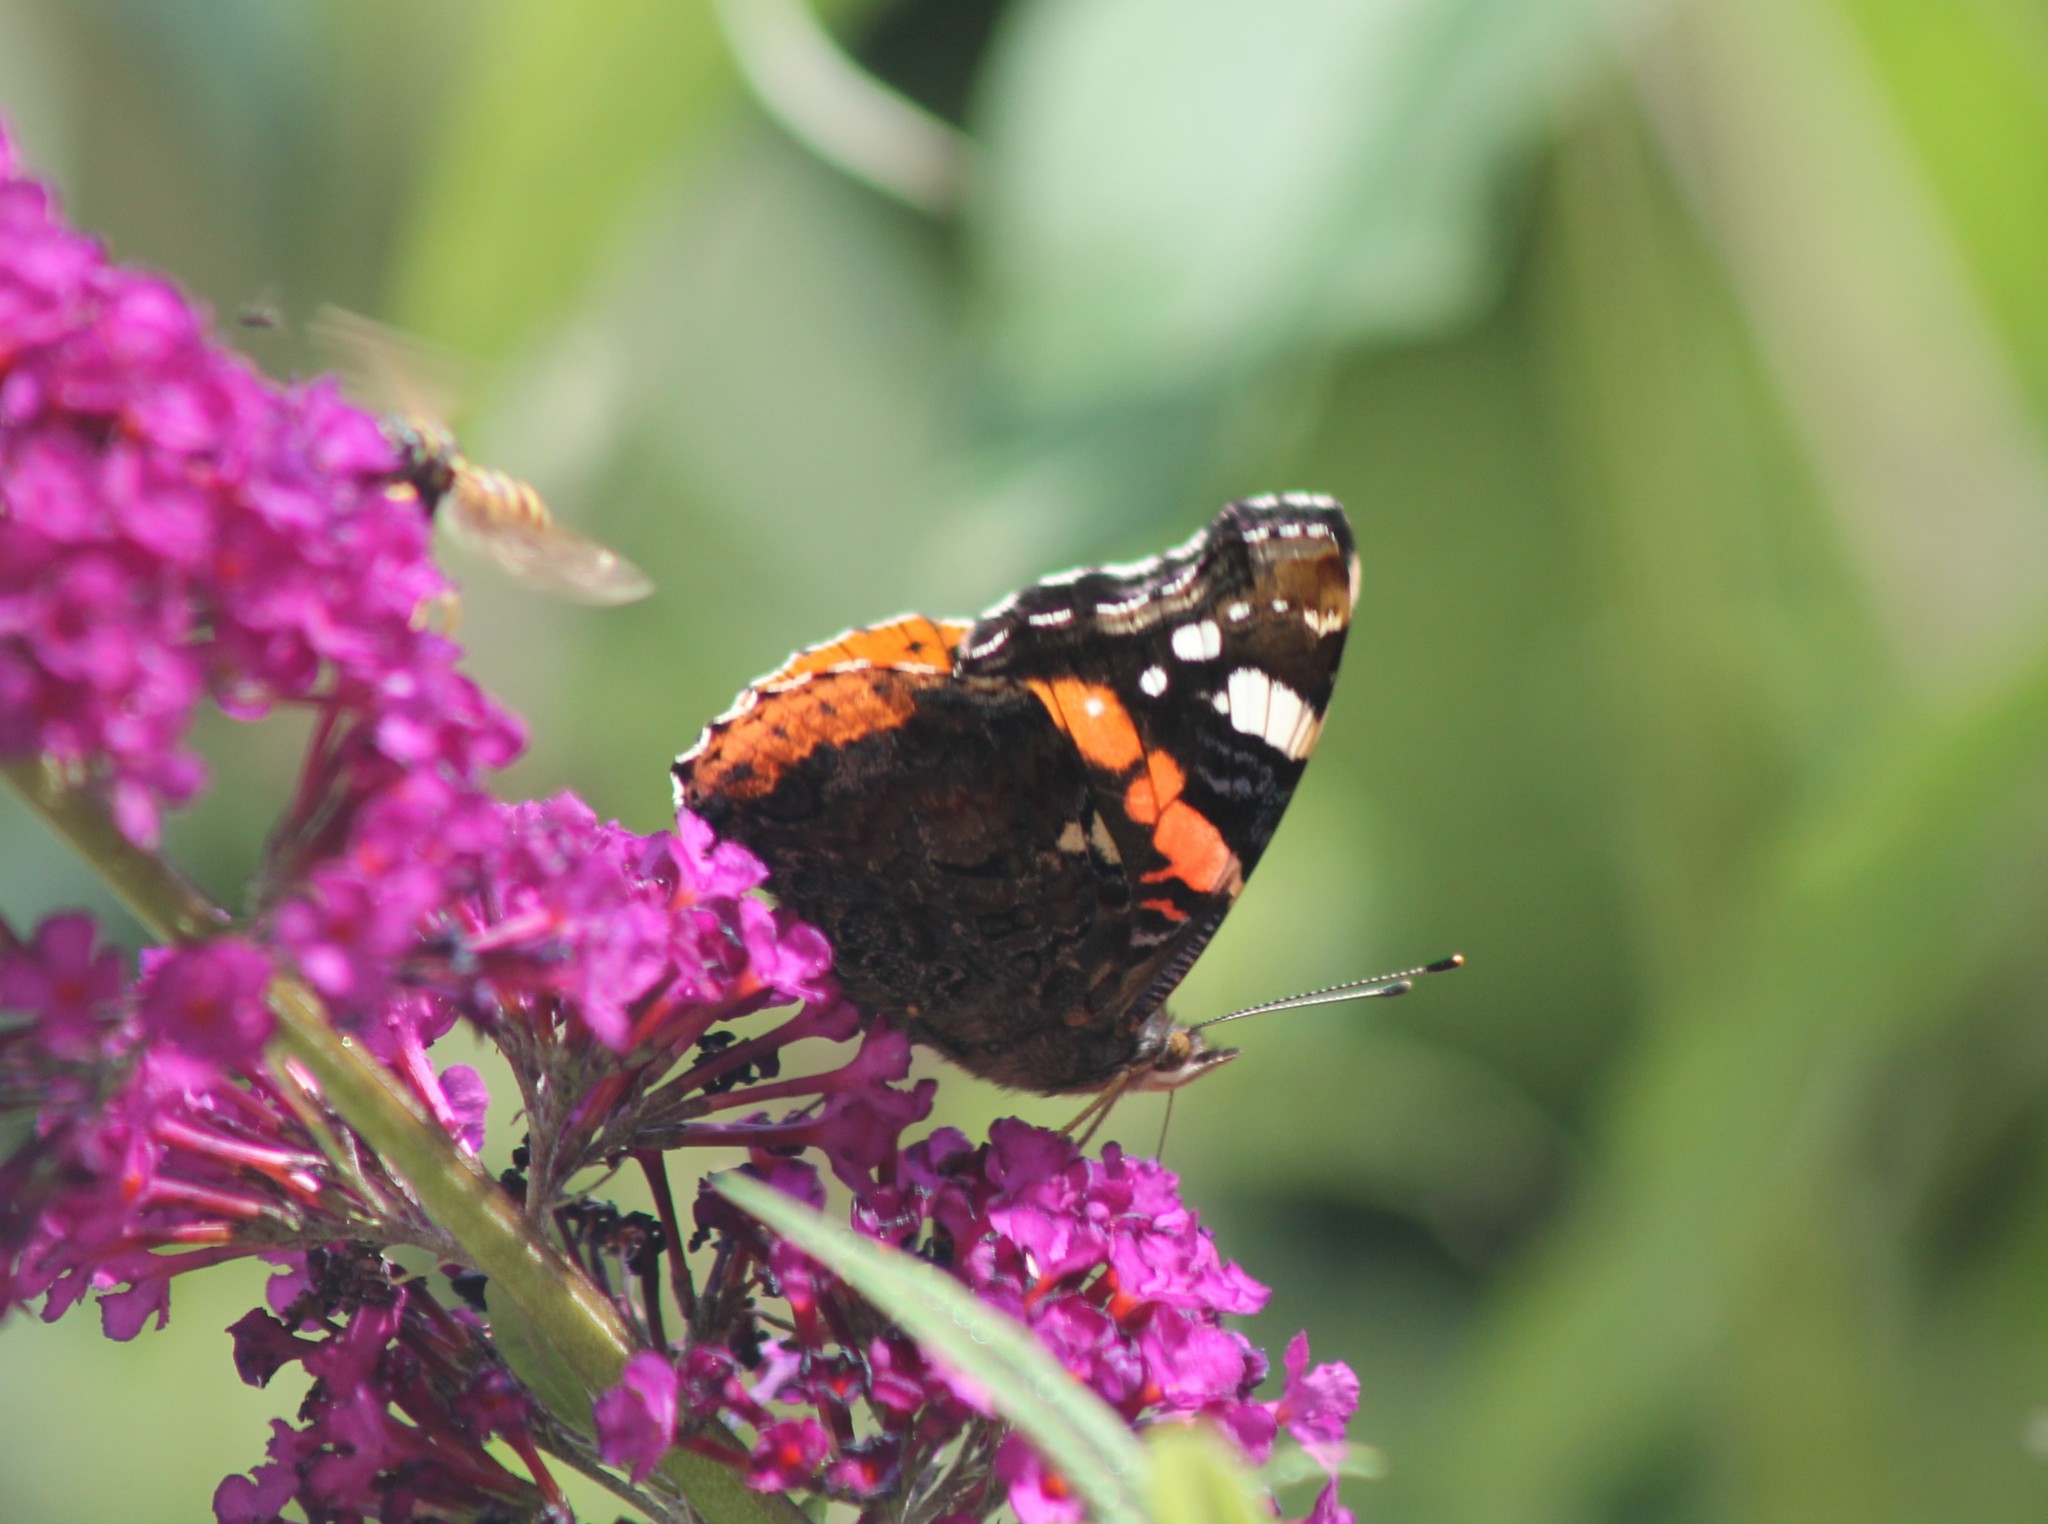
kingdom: Animalia
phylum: Arthropoda
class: Insecta
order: Lepidoptera
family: Nymphalidae
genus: Vanessa
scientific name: Vanessa atalanta
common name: Red admiral
